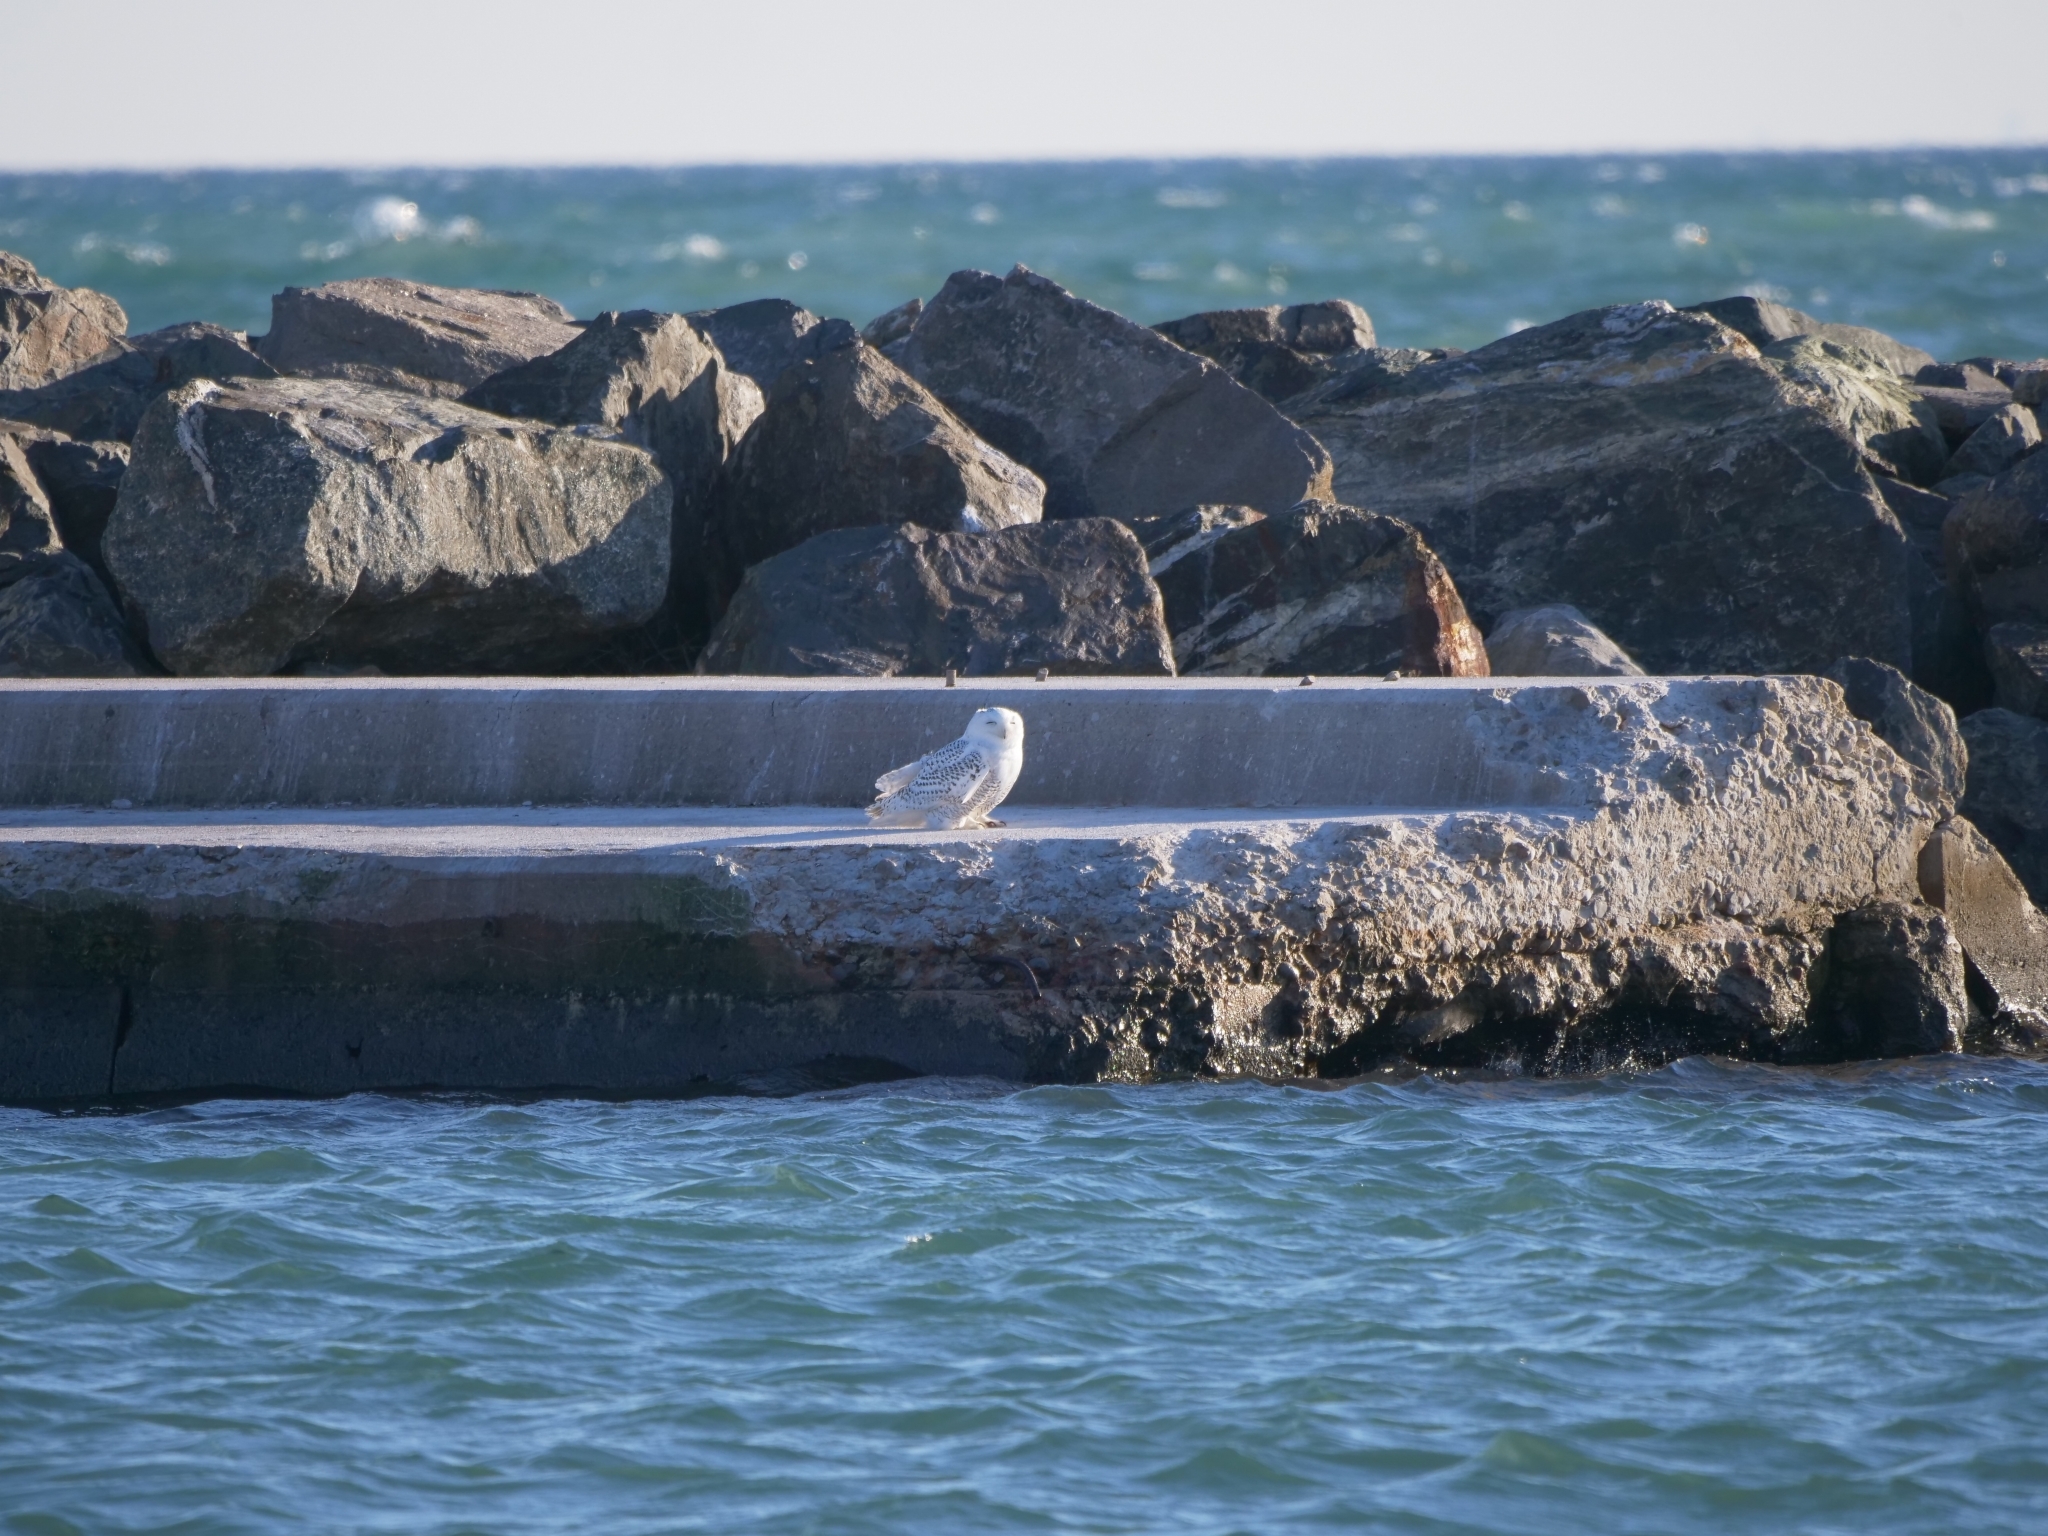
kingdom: Animalia
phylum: Chordata
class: Aves
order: Strigiformes
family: Strigidae
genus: Bubo
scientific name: Bubo scandiacus
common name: Snowy owl
